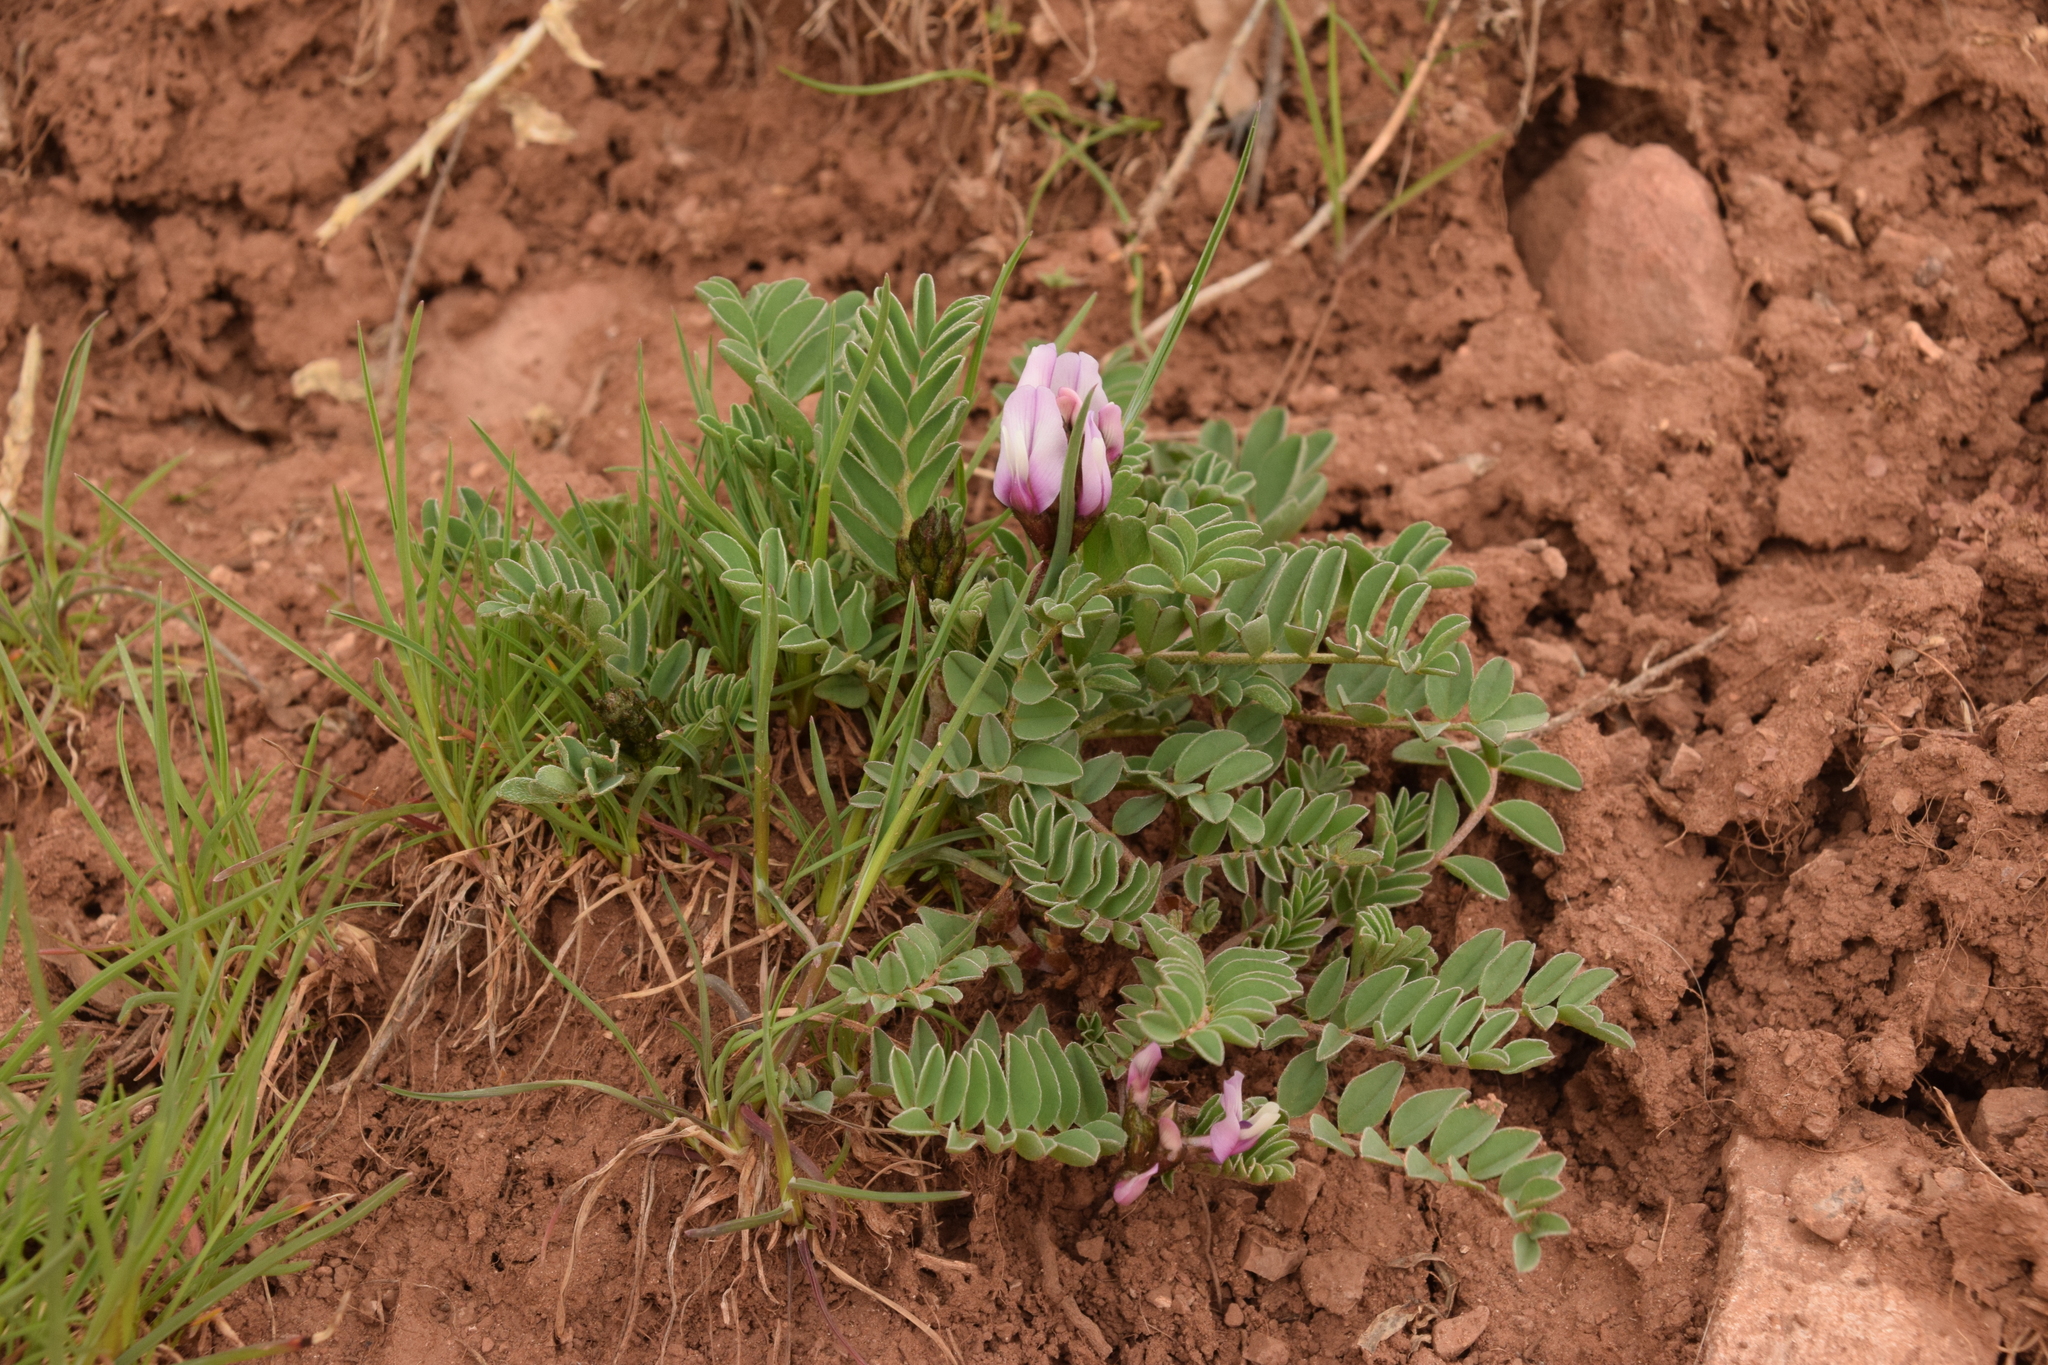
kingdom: Plantae
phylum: Tracheophyta
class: Magnoliopsida
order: Fabales
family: Fabaceae
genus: Astragalus
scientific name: Astragalus cibarius
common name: Browse milk-vetch
